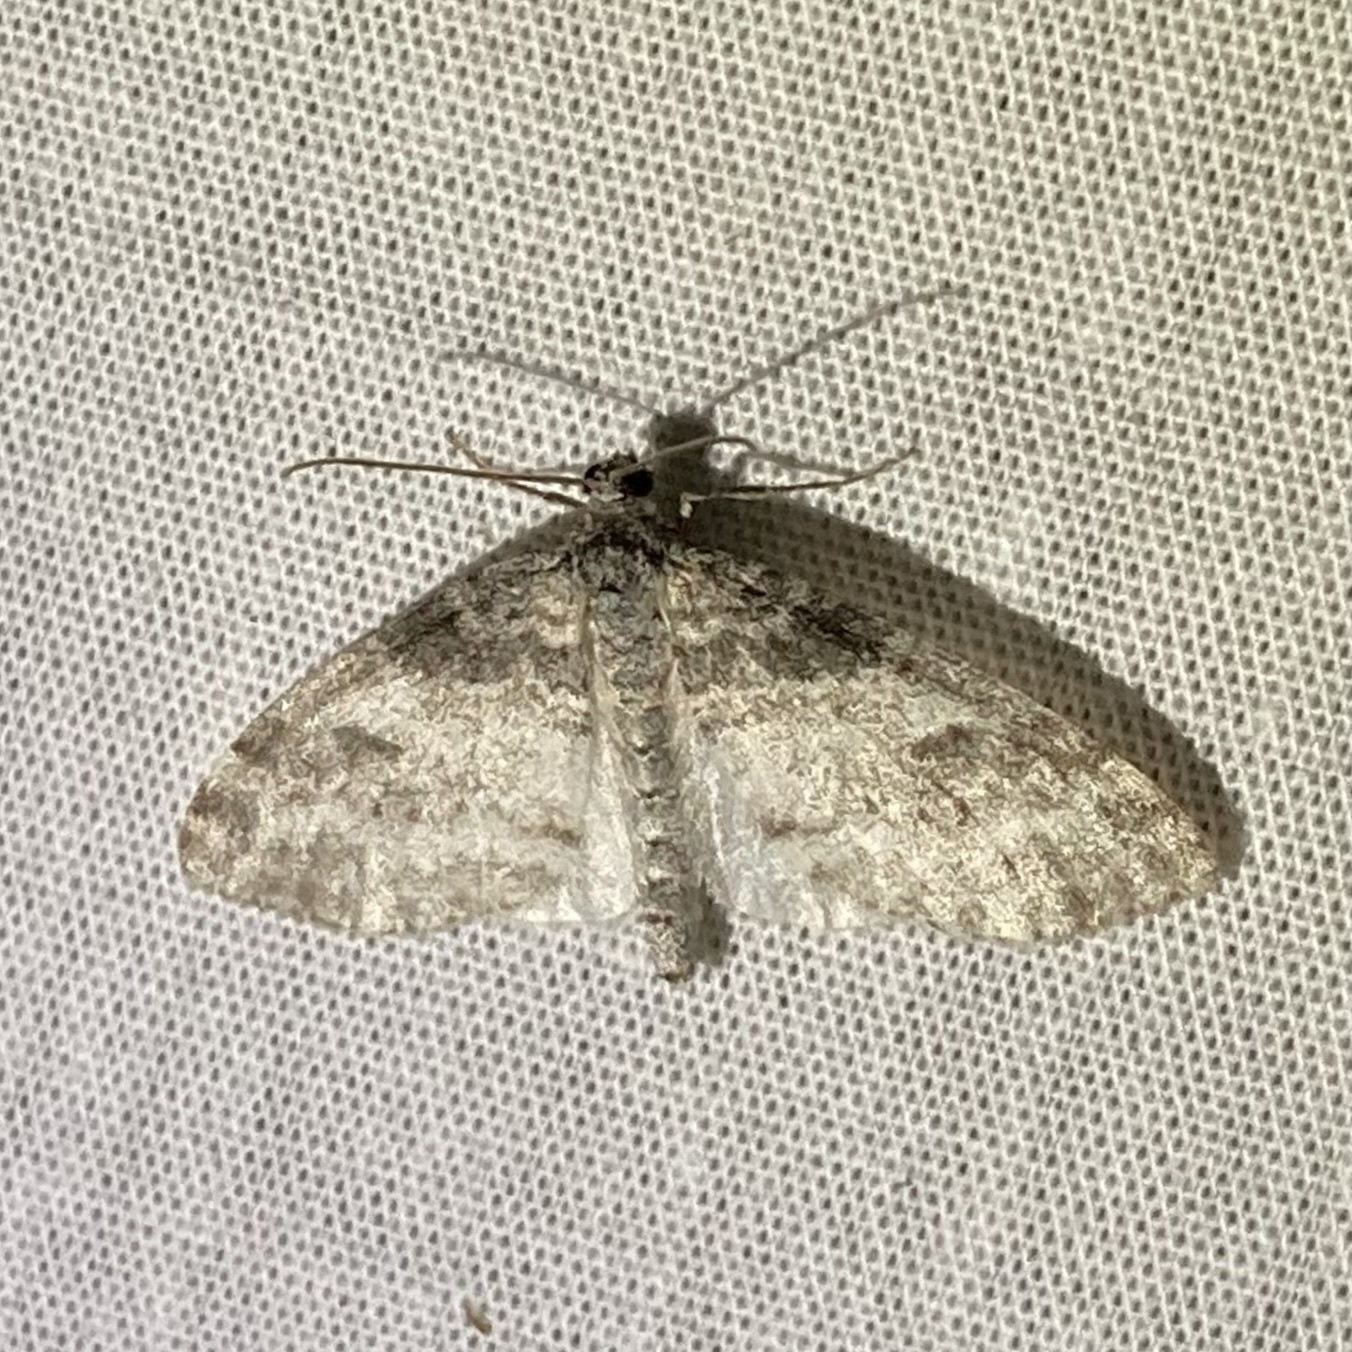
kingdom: Animalia
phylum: Arthropoda
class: Insecta
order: Lepidoptera
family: Geometridae
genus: Lobophora
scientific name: Lobophora nivigerata
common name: Powdered bigwing
